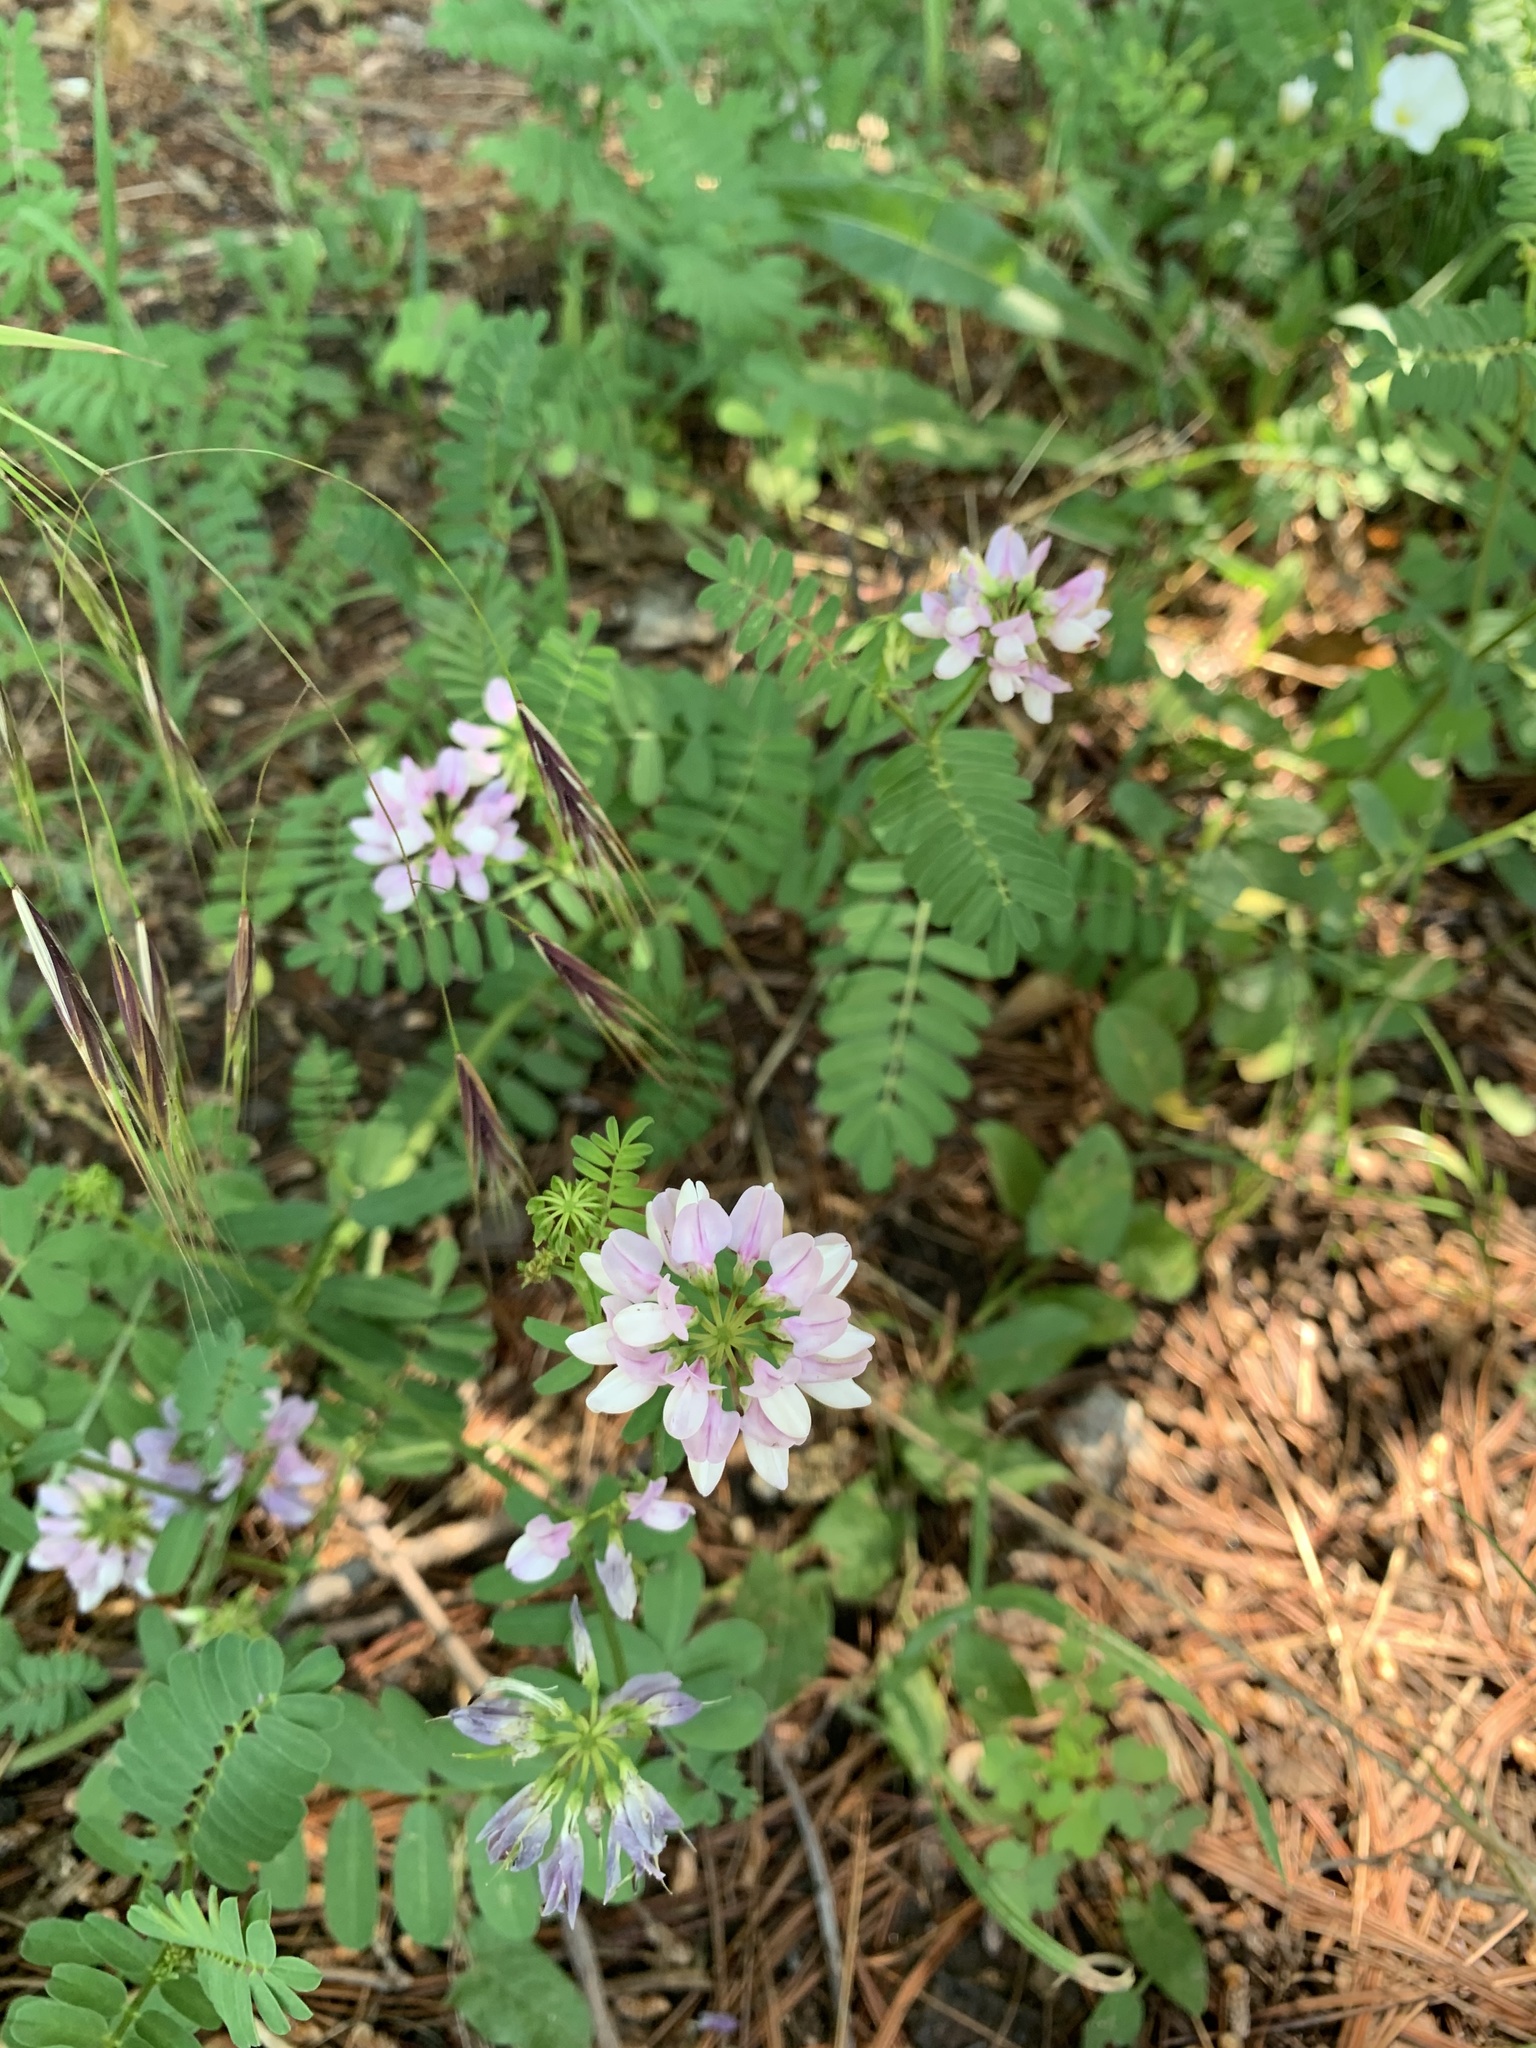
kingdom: Plantae
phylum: Tracheophyta
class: Magnoliopsida
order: Fabales
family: Fabaceae
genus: Coronilla
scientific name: Coronilla varia
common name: Crownvetch
